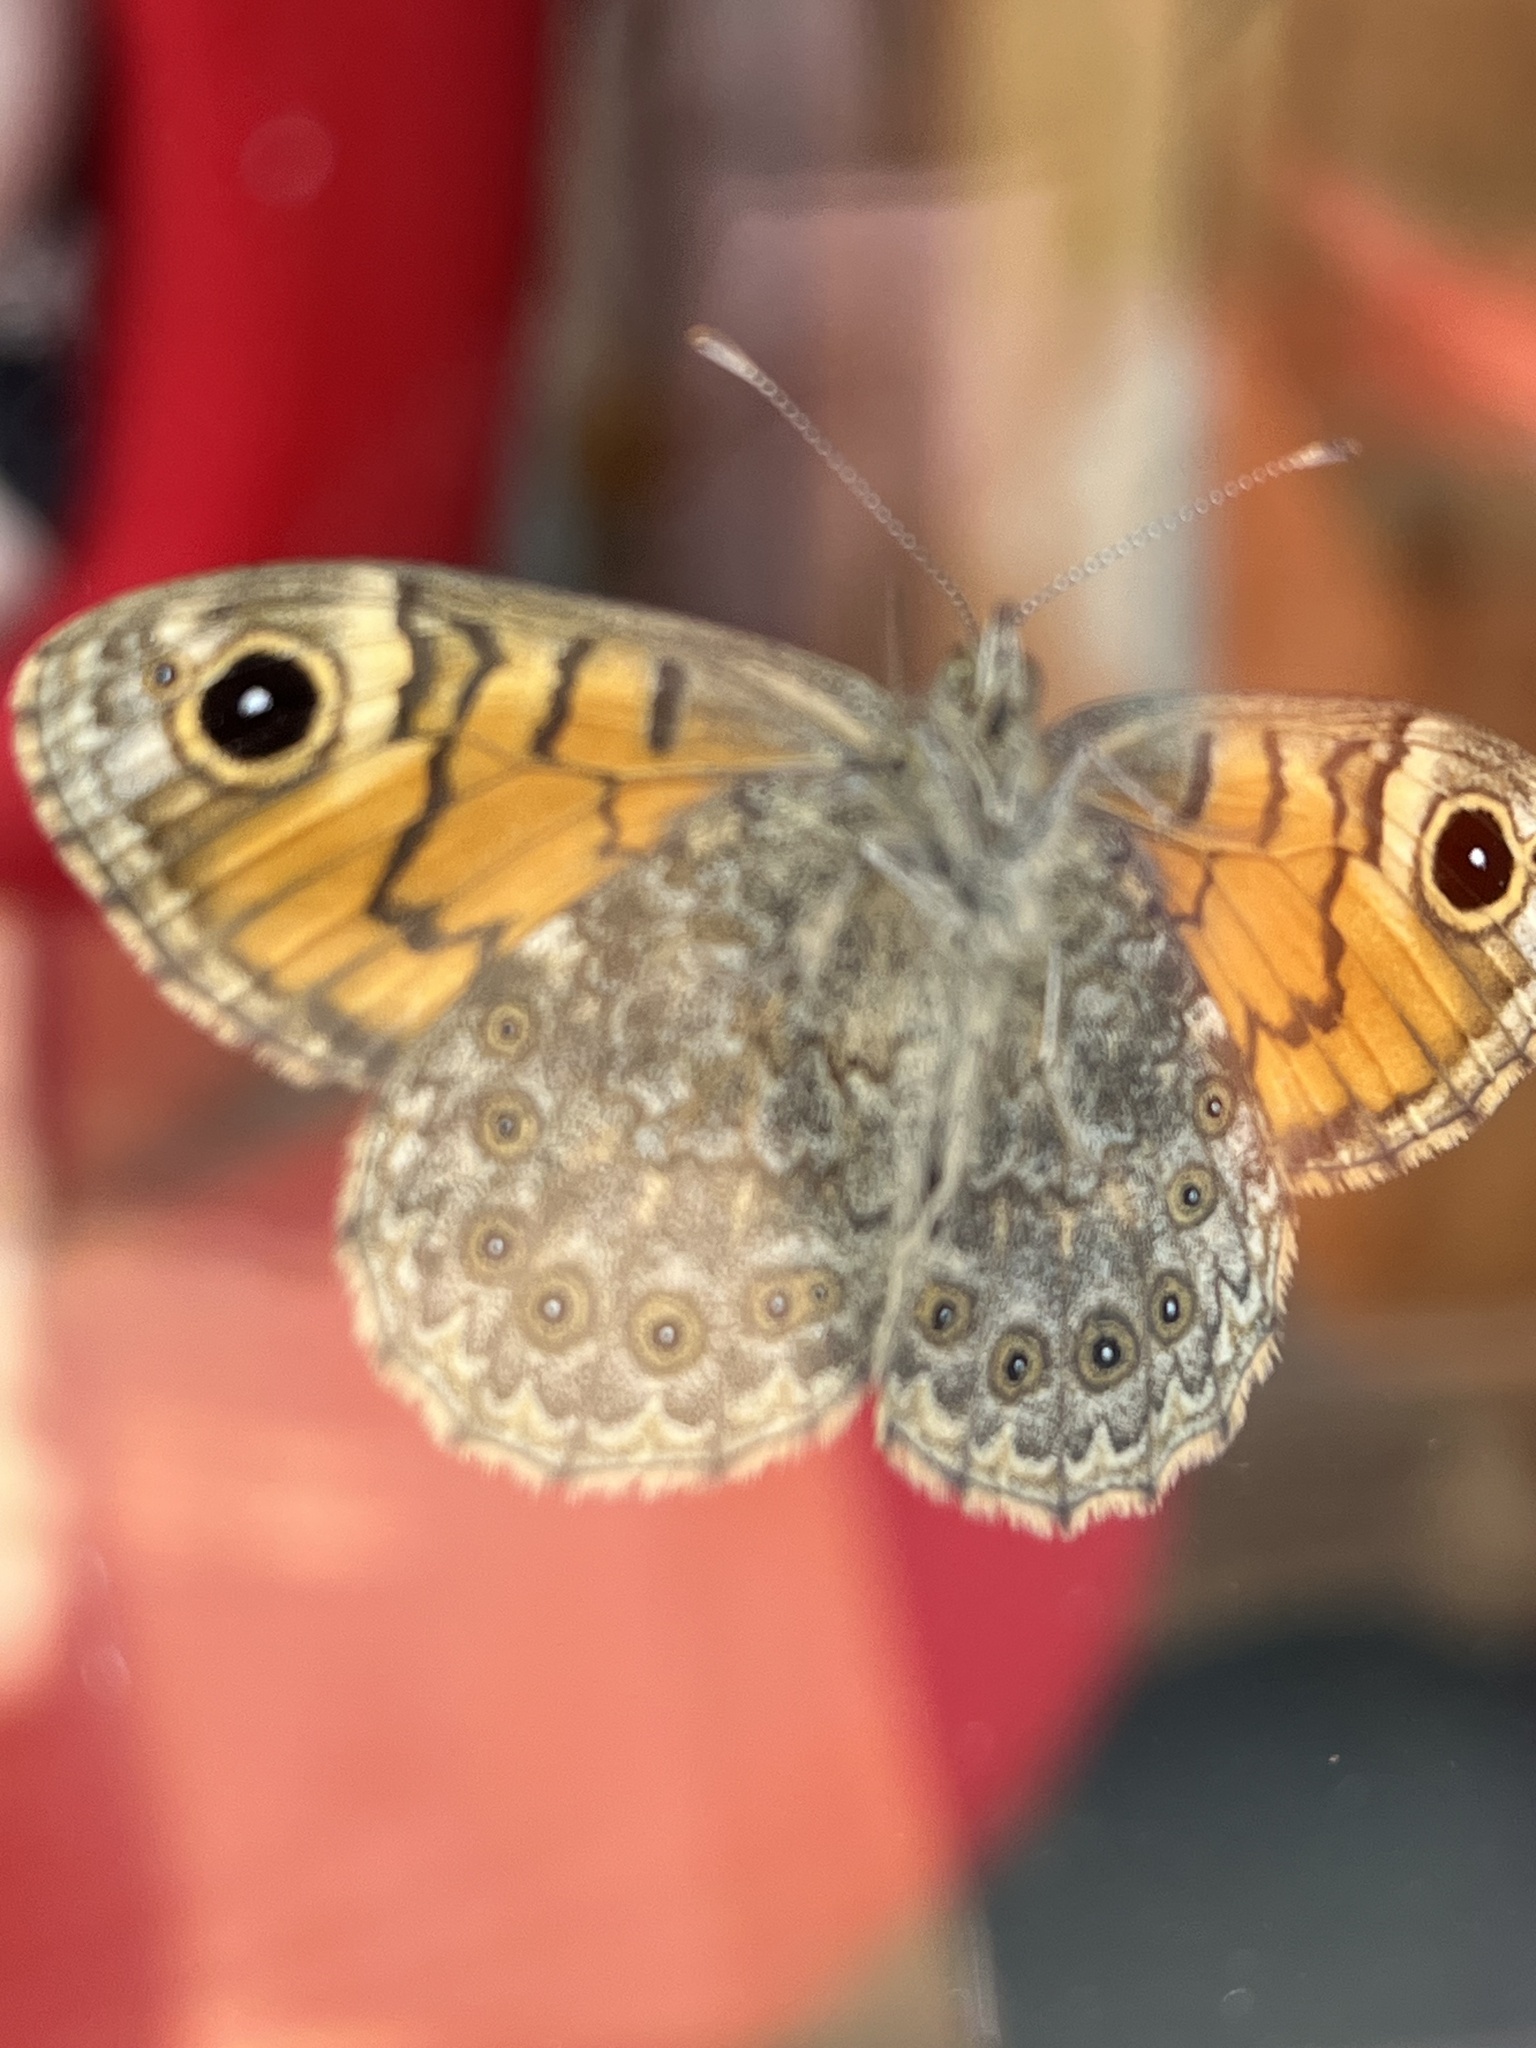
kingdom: Animalia
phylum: Arthropoda
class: Insecta
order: Lepidoptera
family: Nymphalidae
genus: Pararge
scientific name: Pararge Lasiommata megera
